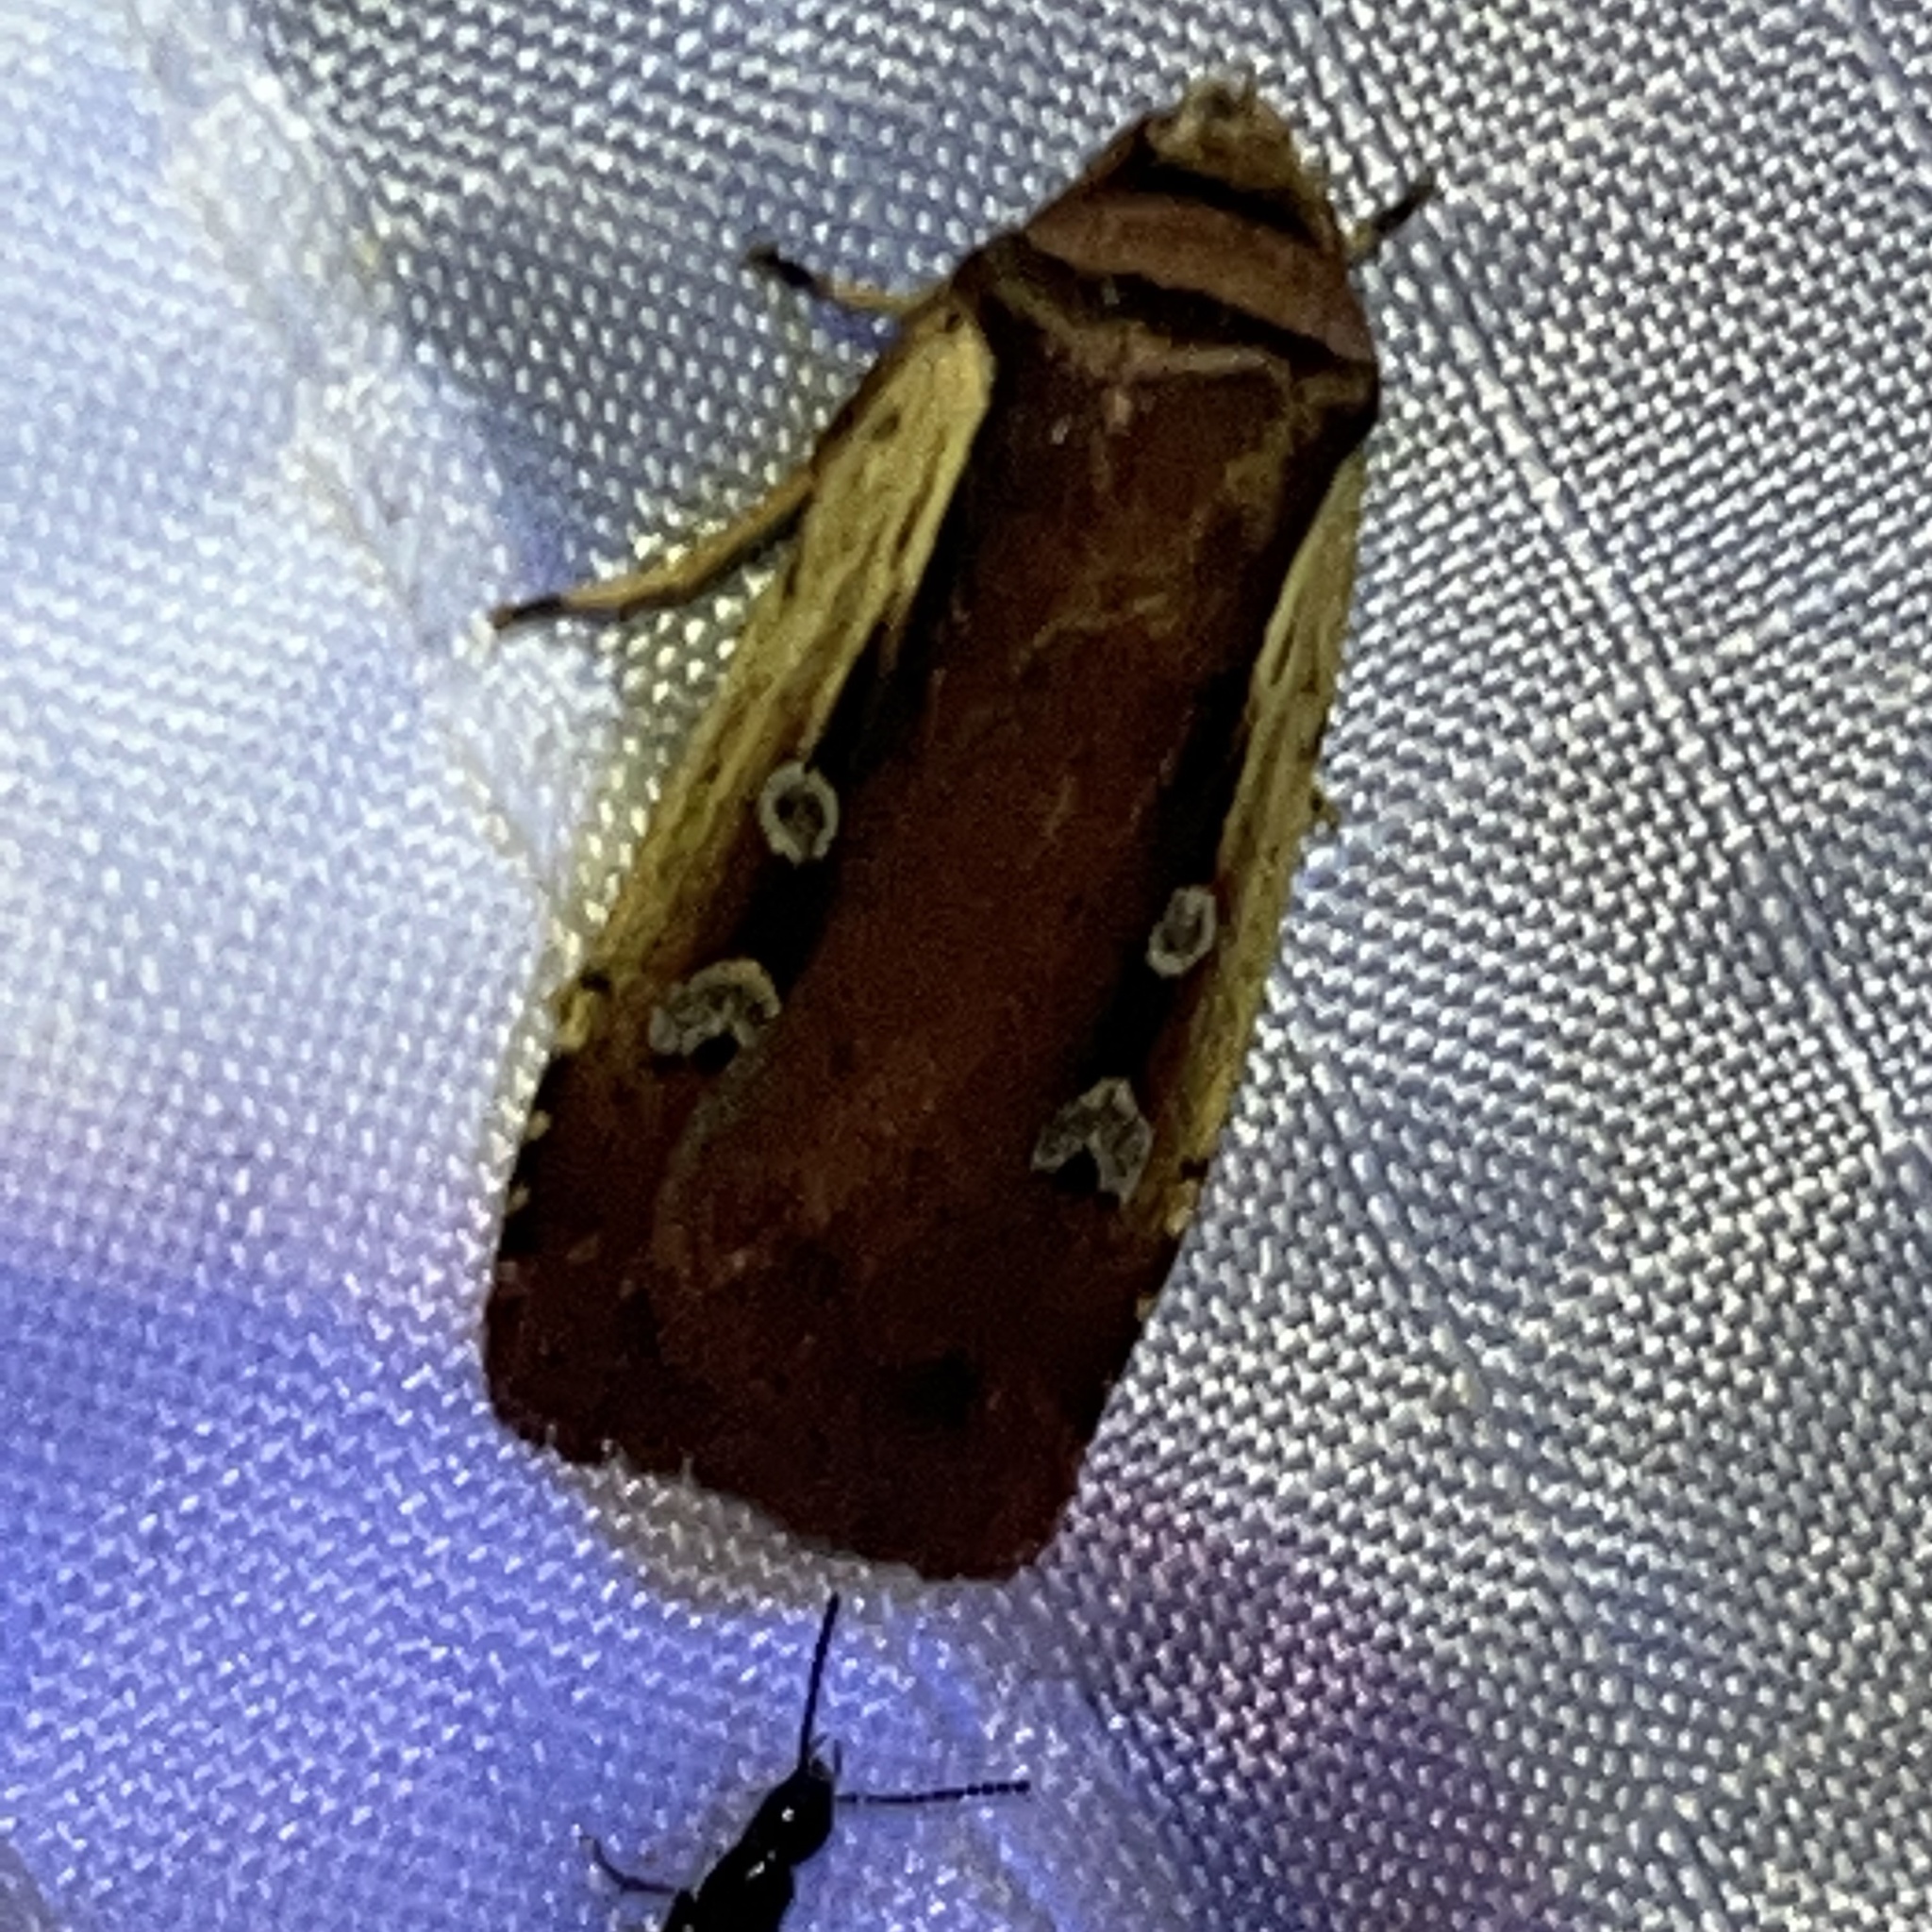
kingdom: Animalia
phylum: Arthropoda
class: Insecta
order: Lepidoptera
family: Noctuidae
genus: Ochropleura
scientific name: Ochropleura implecta
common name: Flame-shouldered dart
